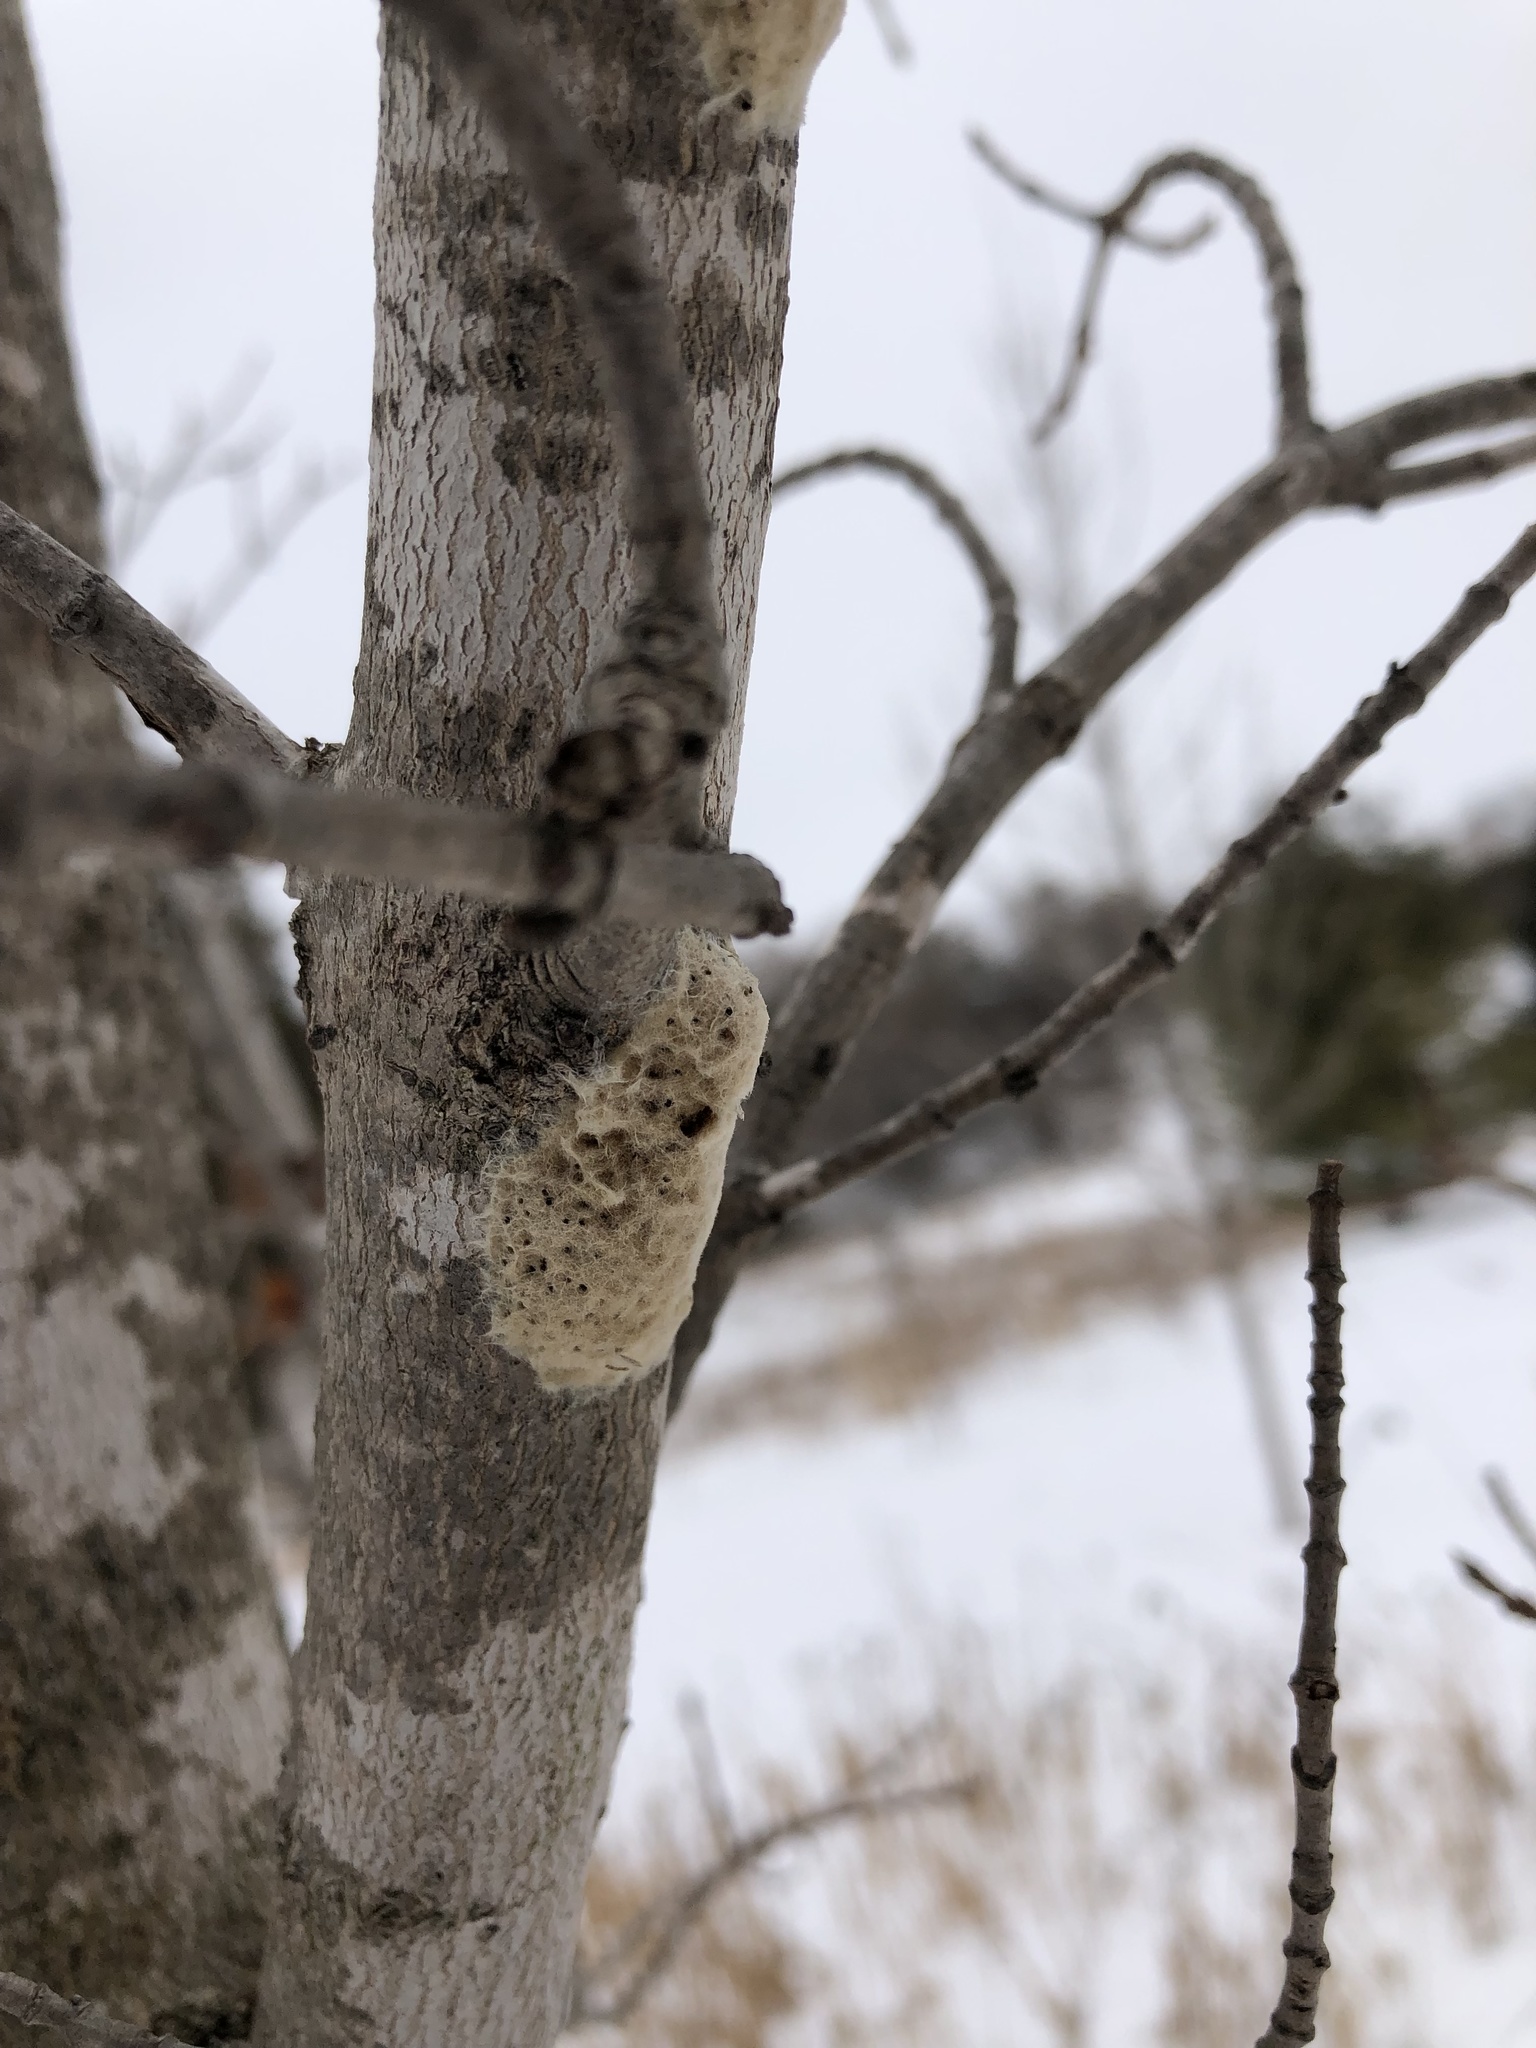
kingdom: Animalia
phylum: Arthropoda
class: Insecta
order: Lepidoptera
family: Erebidae
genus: Lymantria
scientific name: Lymantria dispar
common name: Gypsy moth
